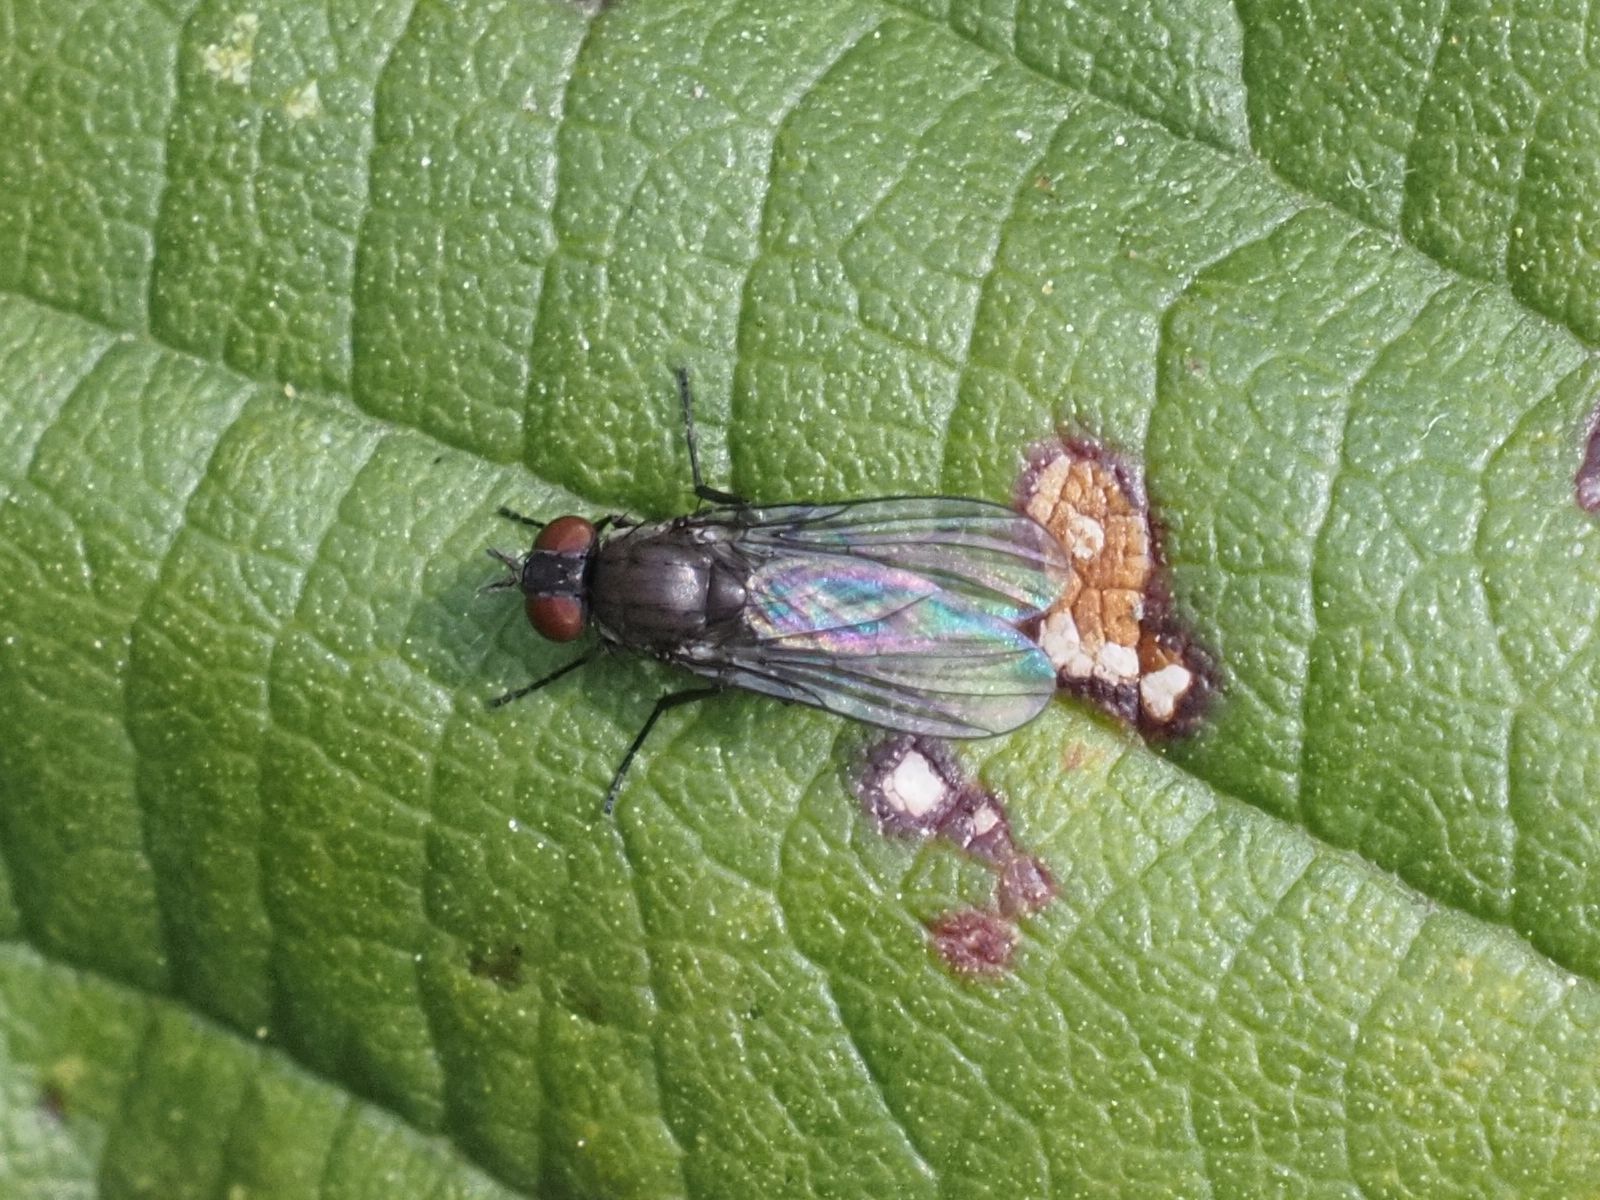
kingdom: Animalia
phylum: Arthropoda
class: Insecta
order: Diptera
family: Muscidae
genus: Coenosia
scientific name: Coenosia agromyzina
